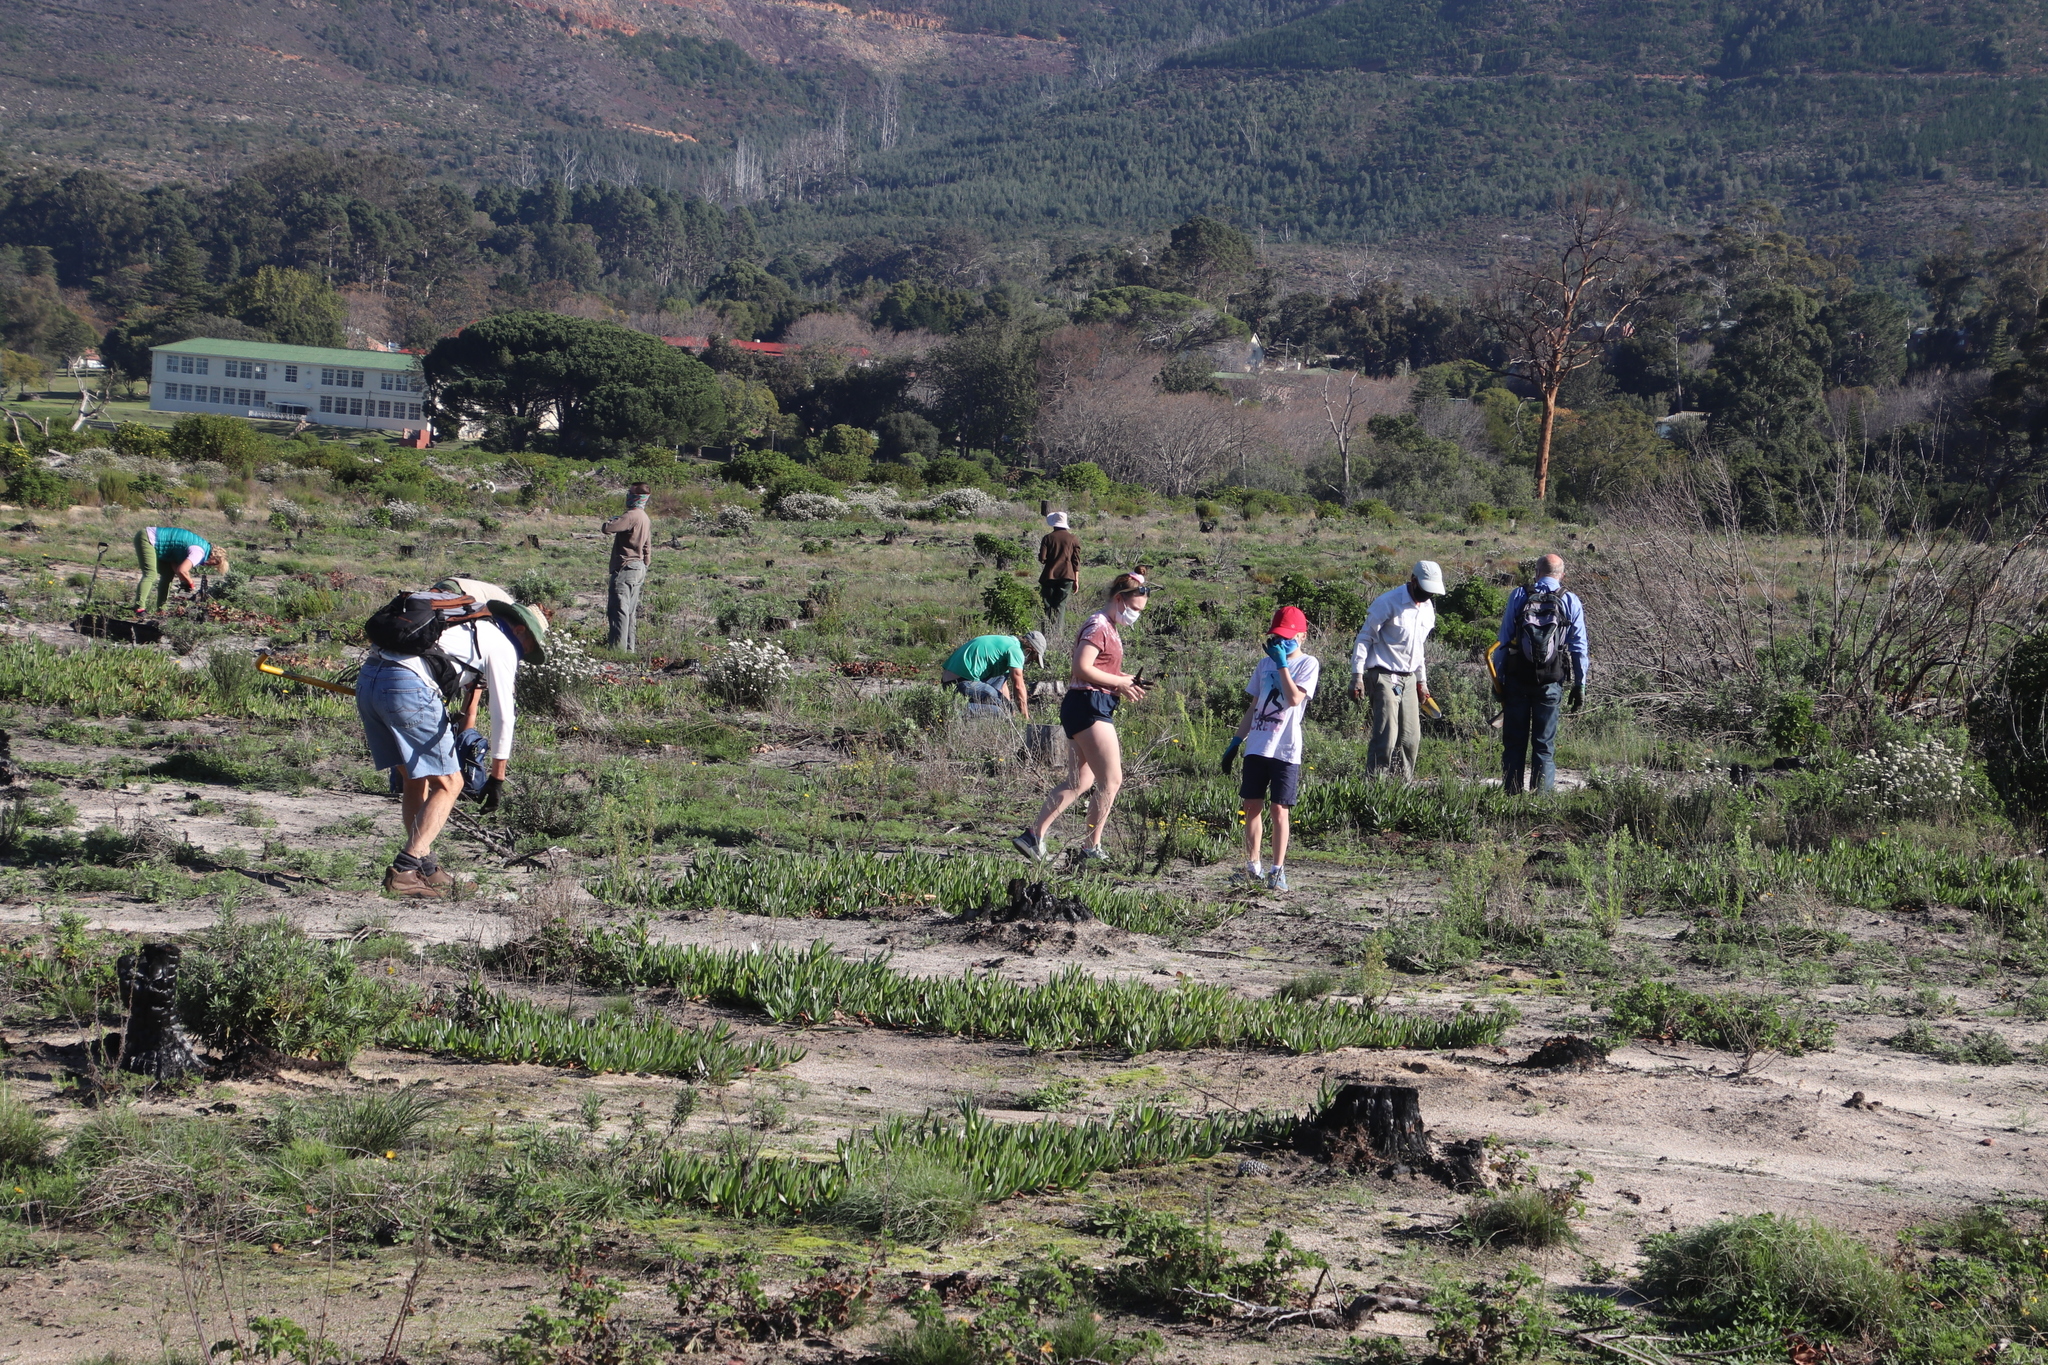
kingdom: Plantae
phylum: Tracheophyta
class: Magnoliopsida
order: Caryophyllales
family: Aizoaceae
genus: Carpobrotus
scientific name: Carpobrotus edulis
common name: Hottentot-fig
